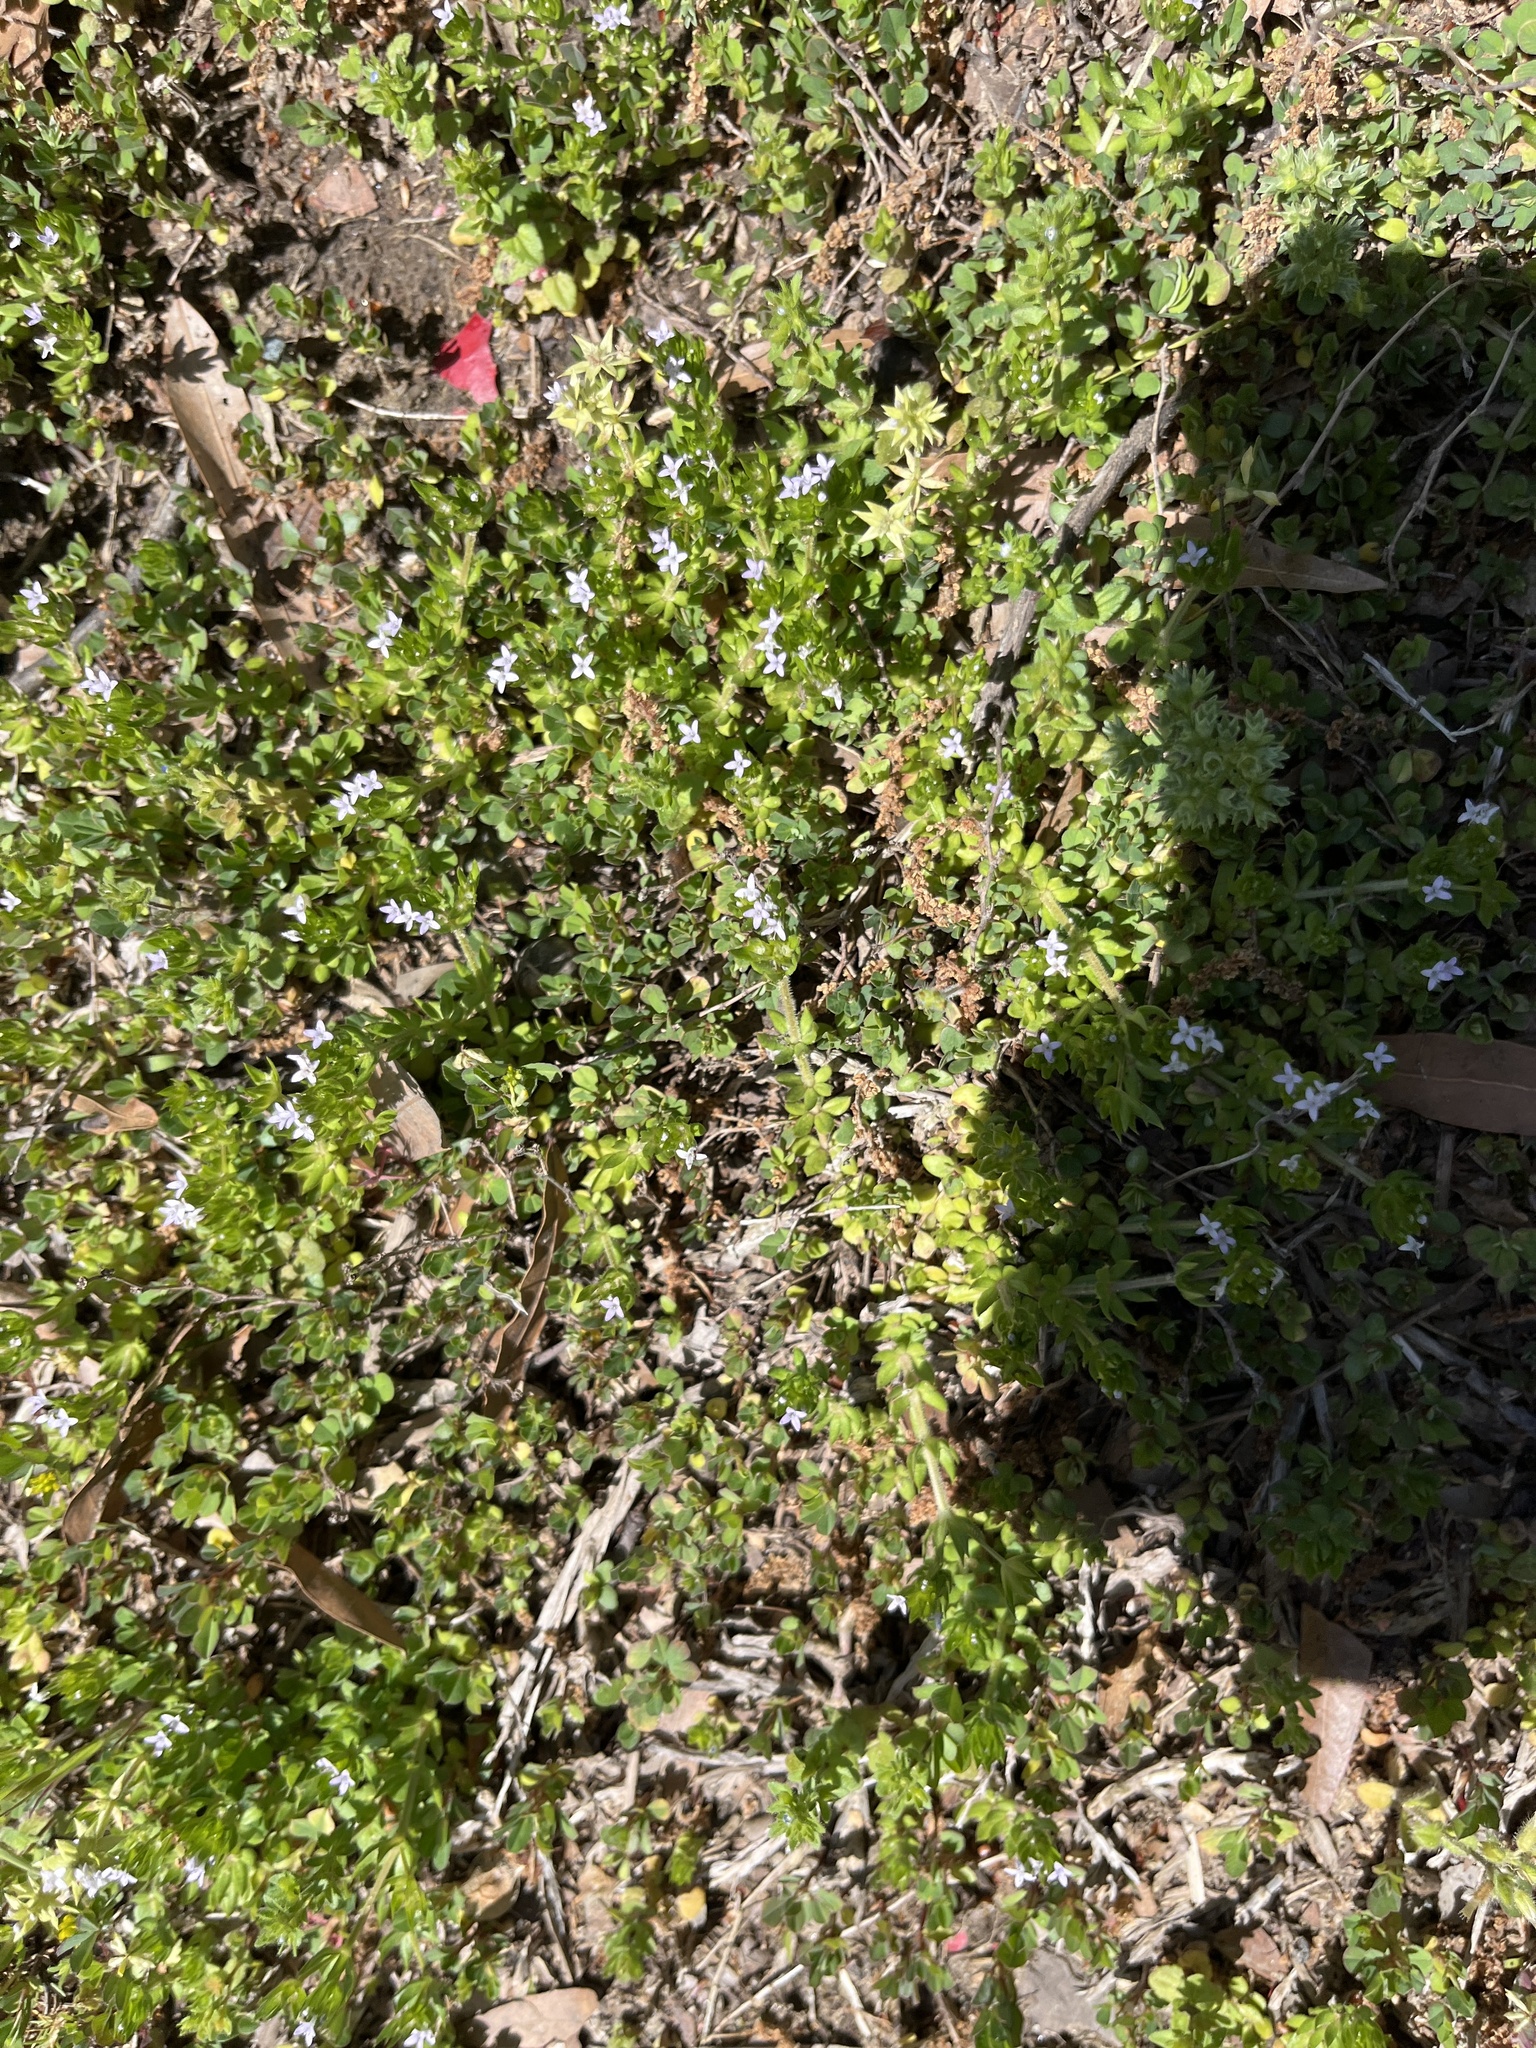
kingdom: Plantae
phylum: Tracheophyta
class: Magnoliopsida
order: Gentianales
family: Rubiaceae
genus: Sherardia
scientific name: Sherardia arvensis
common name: Field madder
